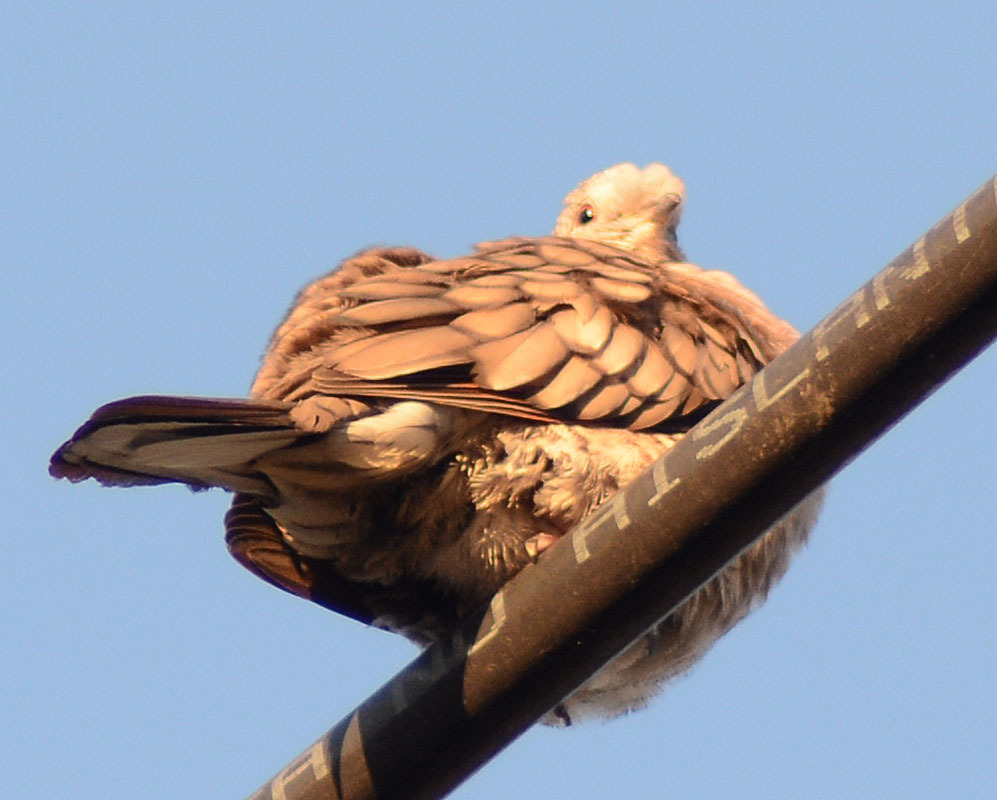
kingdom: Animalia
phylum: Chordata
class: Aves
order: Columbiformes
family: Columbidae
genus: Columbina
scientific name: Columbina inca
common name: Inca dove
